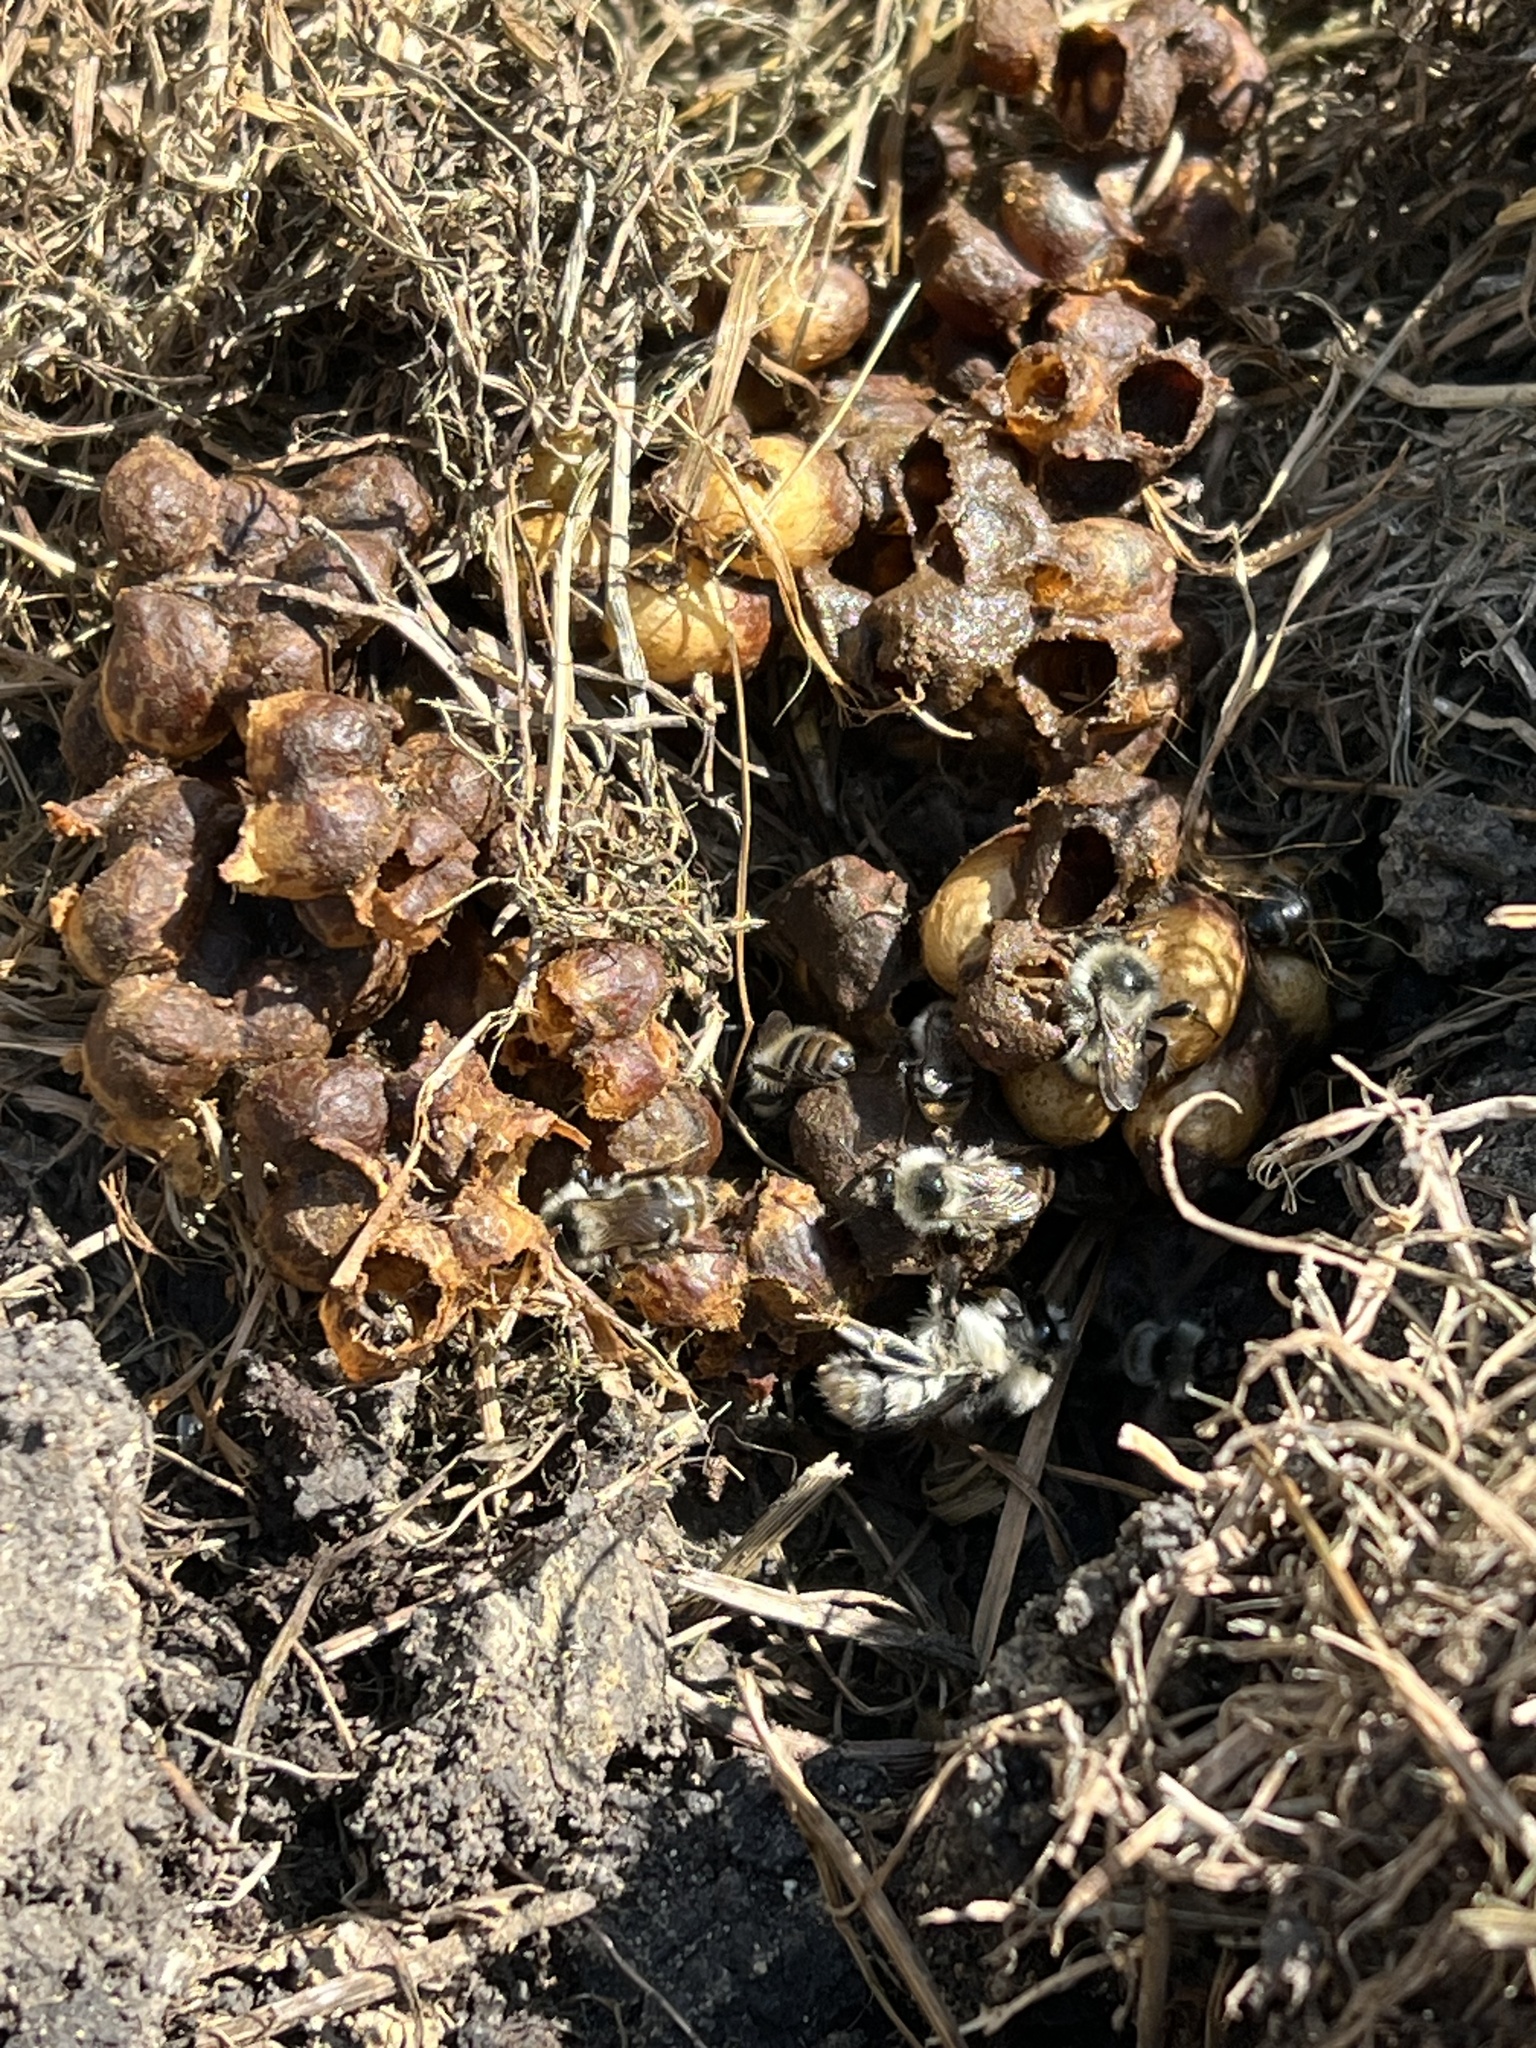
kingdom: Animalia
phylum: Arthropoda
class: Insecta
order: Hymenoptera
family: Apidae
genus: Bombus
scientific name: Bombus sylvarum
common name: Shrill carder bee
